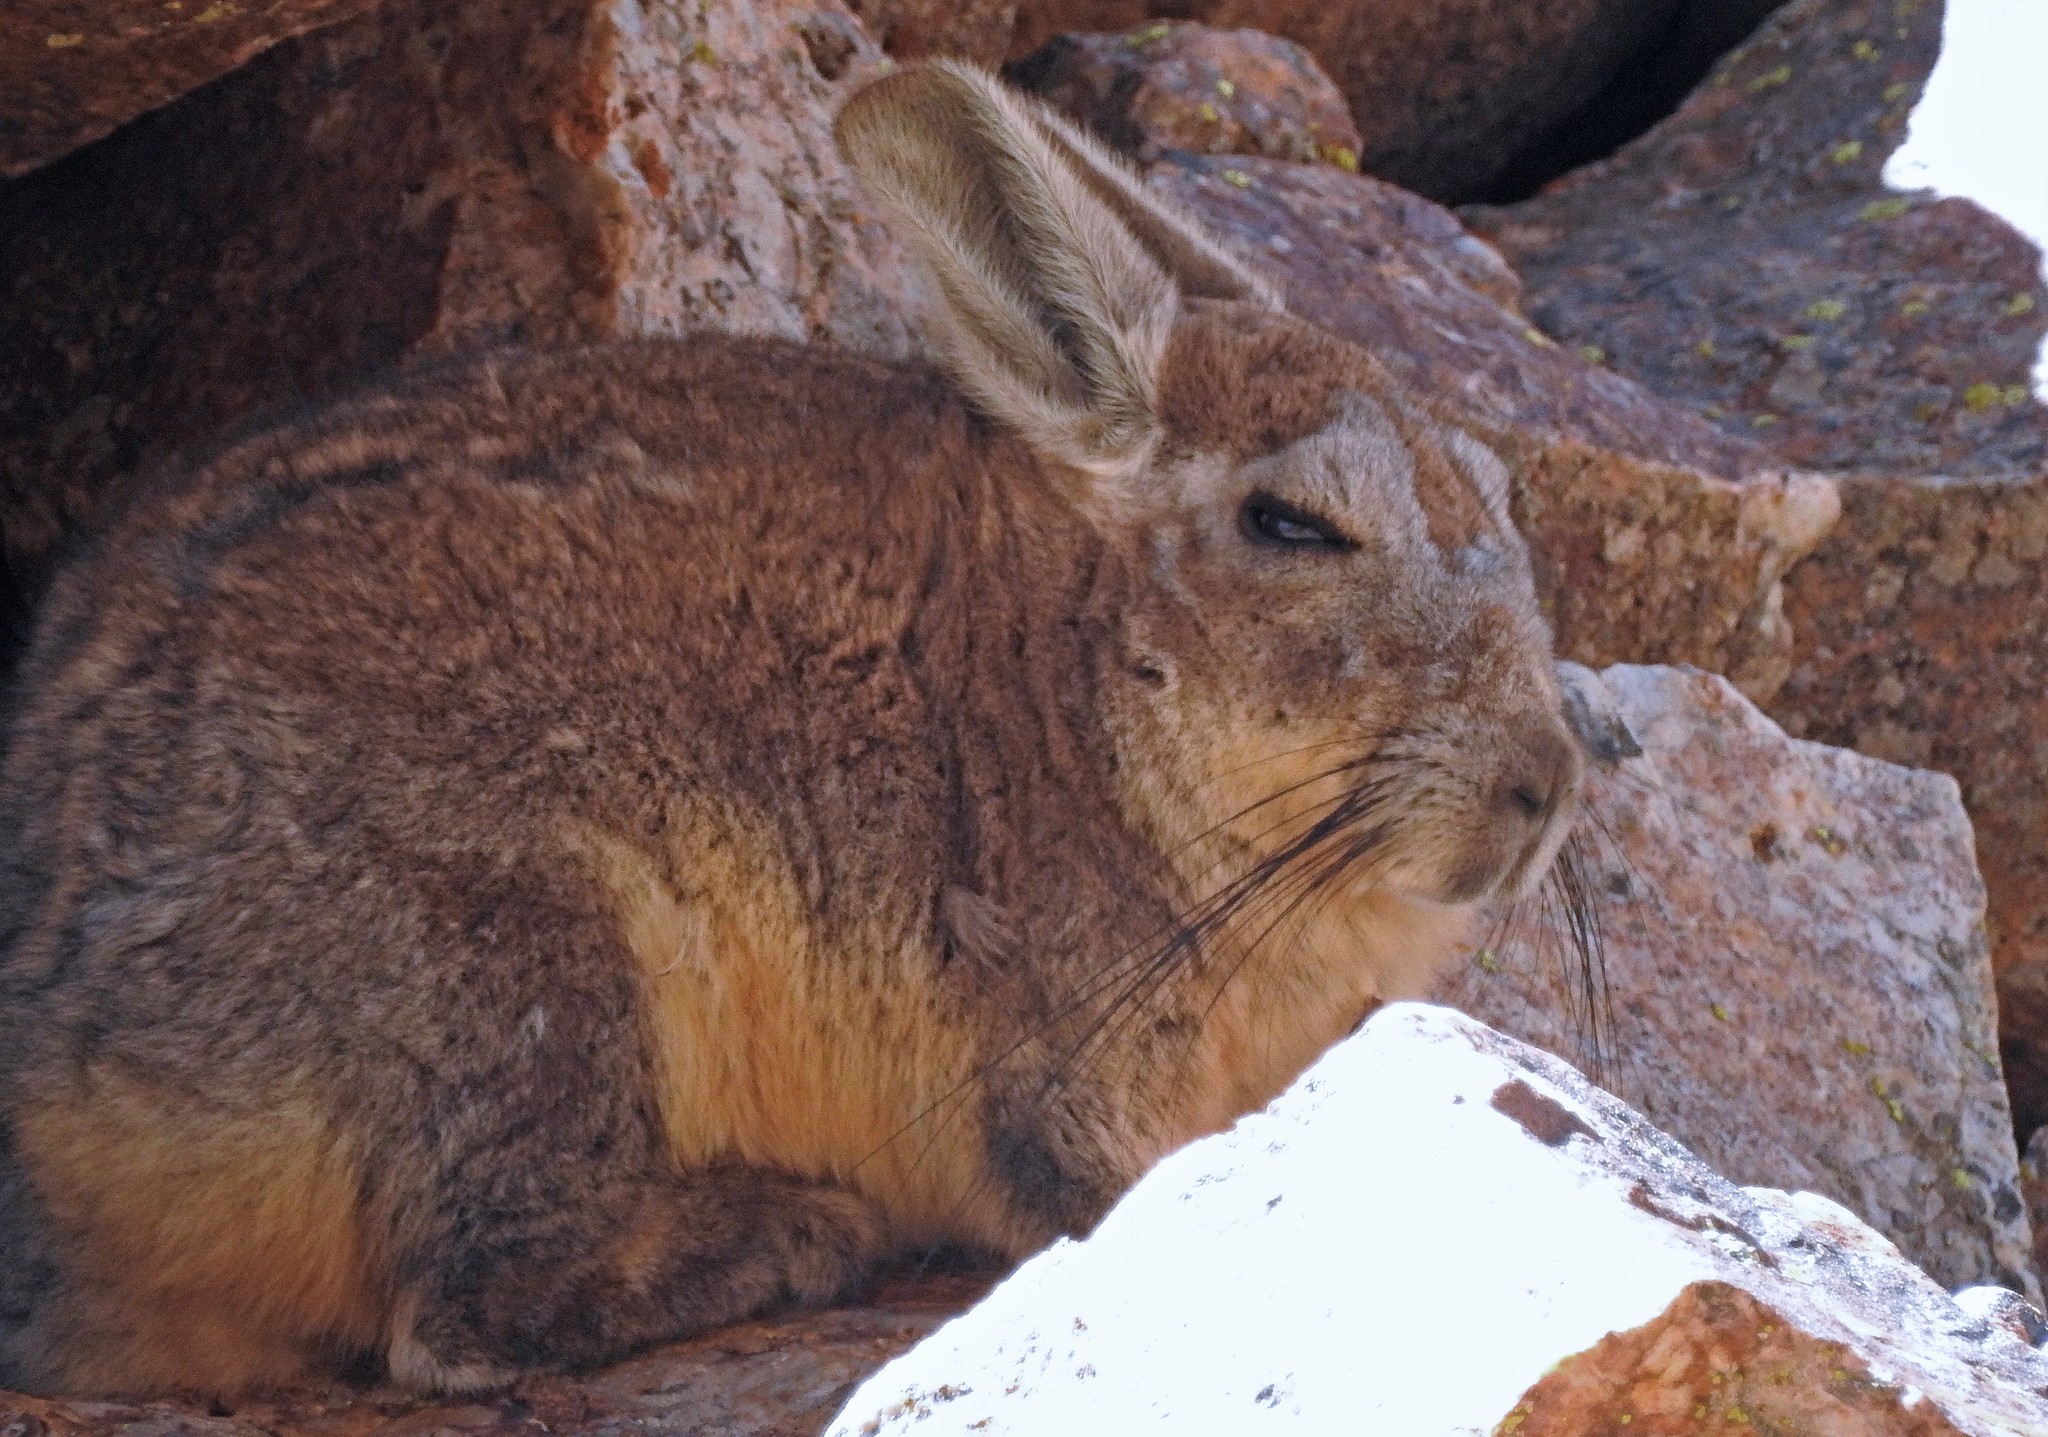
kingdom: Animalia
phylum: Chordata
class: Mammalia
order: Rodentia
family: Chinchillidae
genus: Lagidium
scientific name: Lagidium viscacia
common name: Southern viscacha
